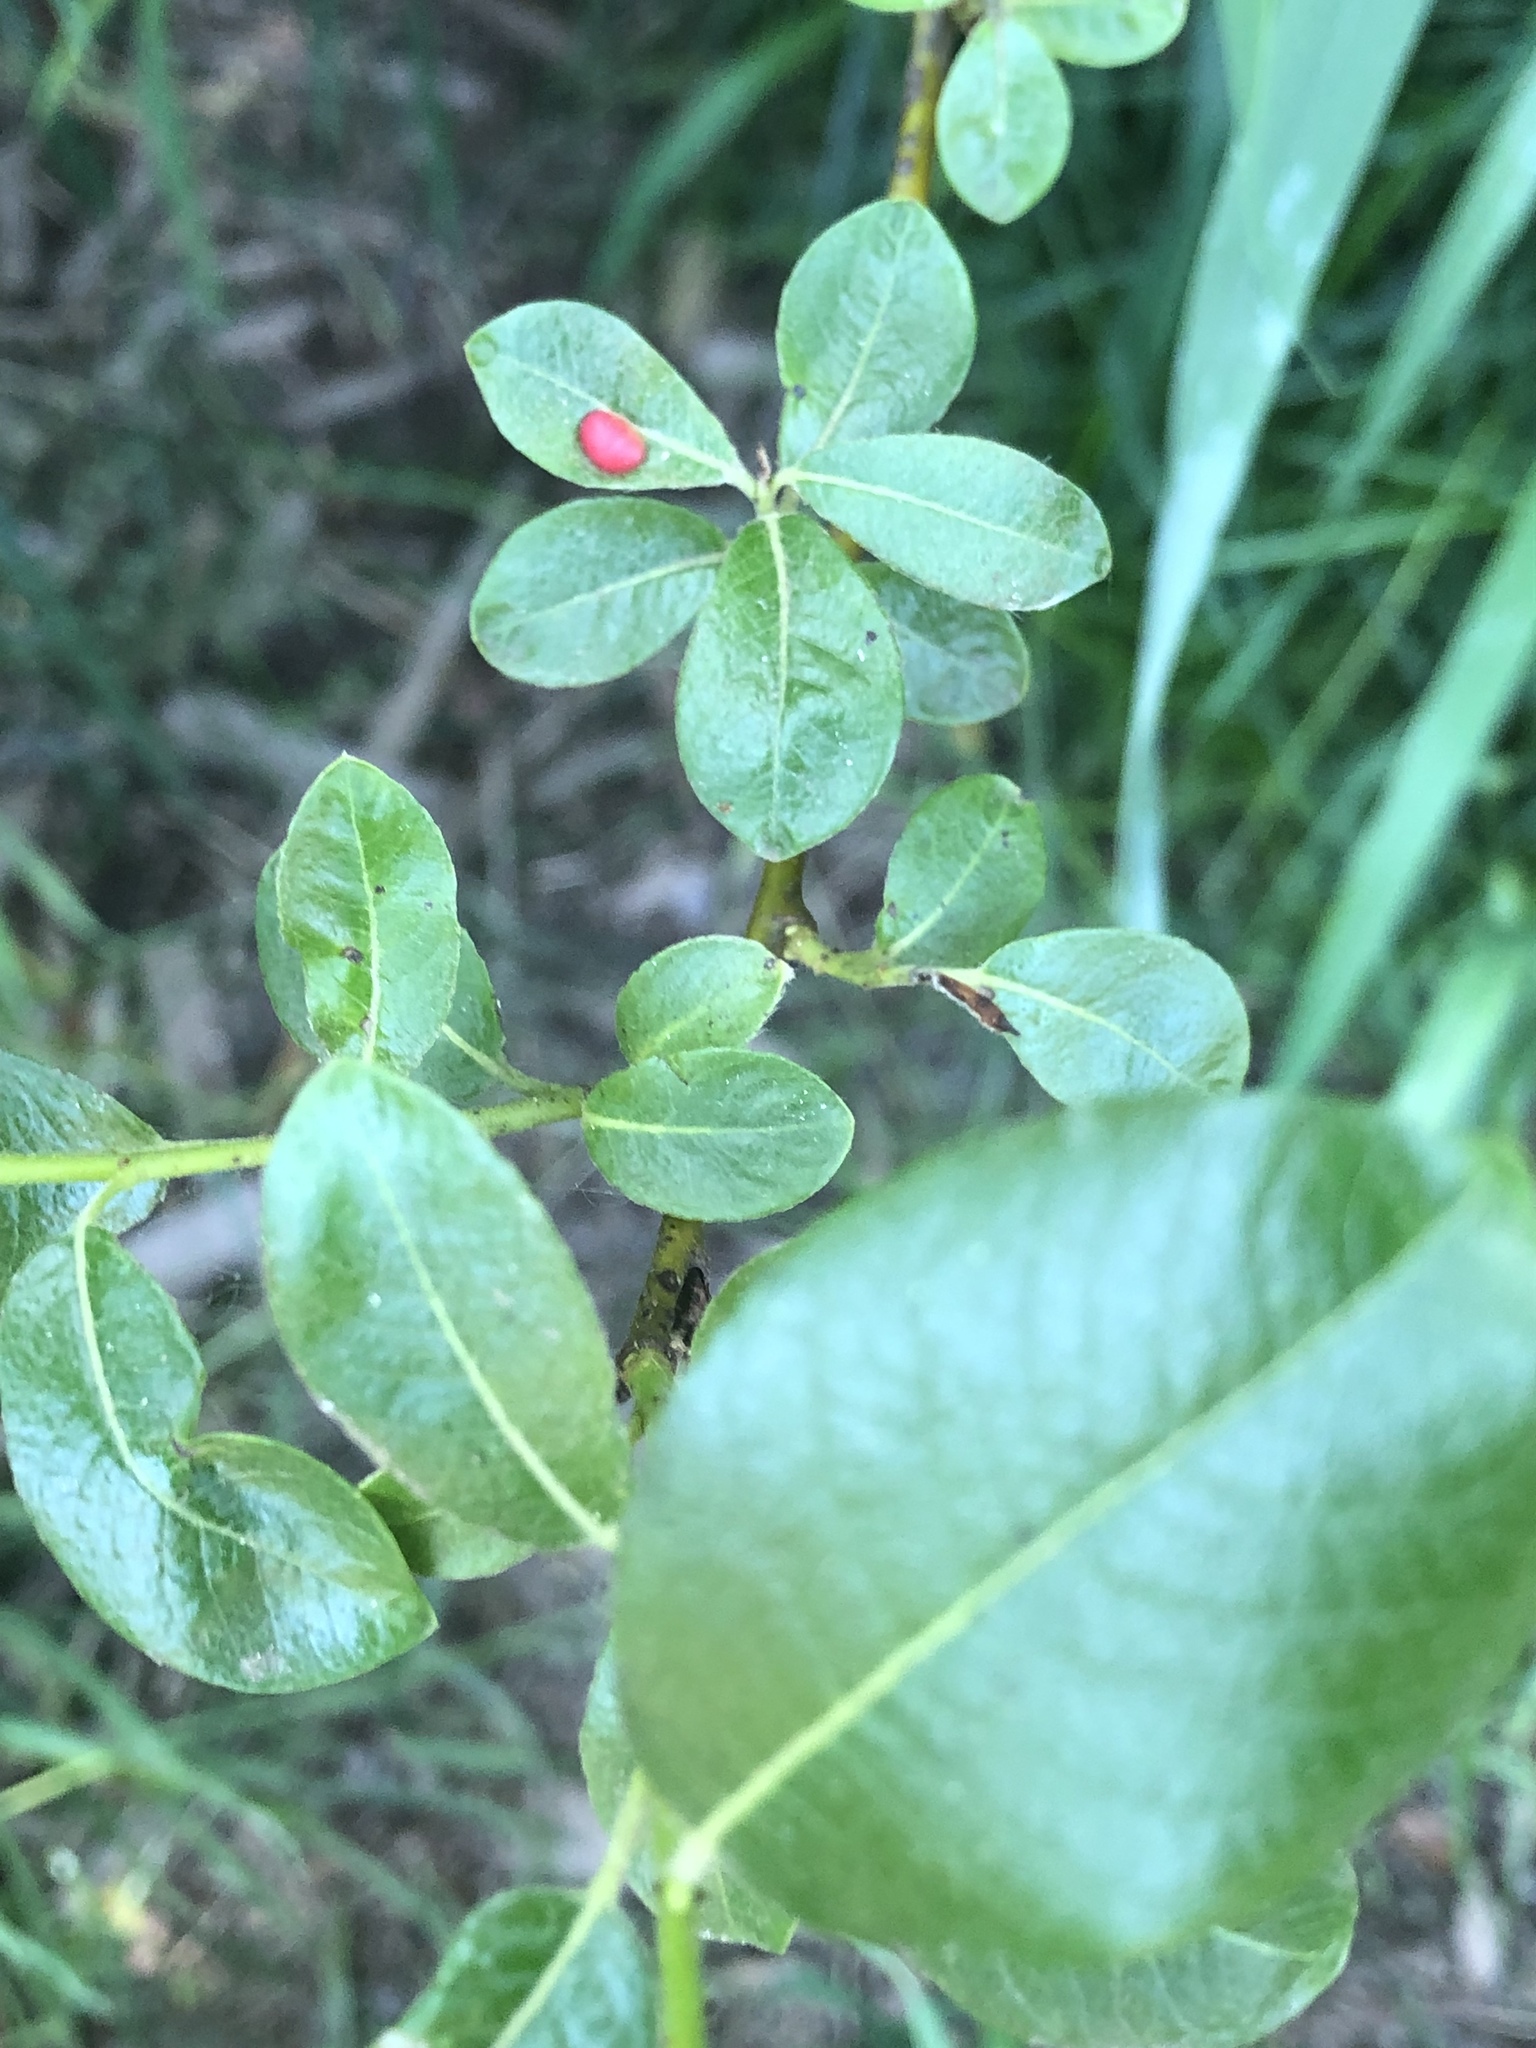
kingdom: Animalia
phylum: Arthropoda
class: Insecta
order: Hymenoptera
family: Tenthredinidae
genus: Euura
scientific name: Euura
